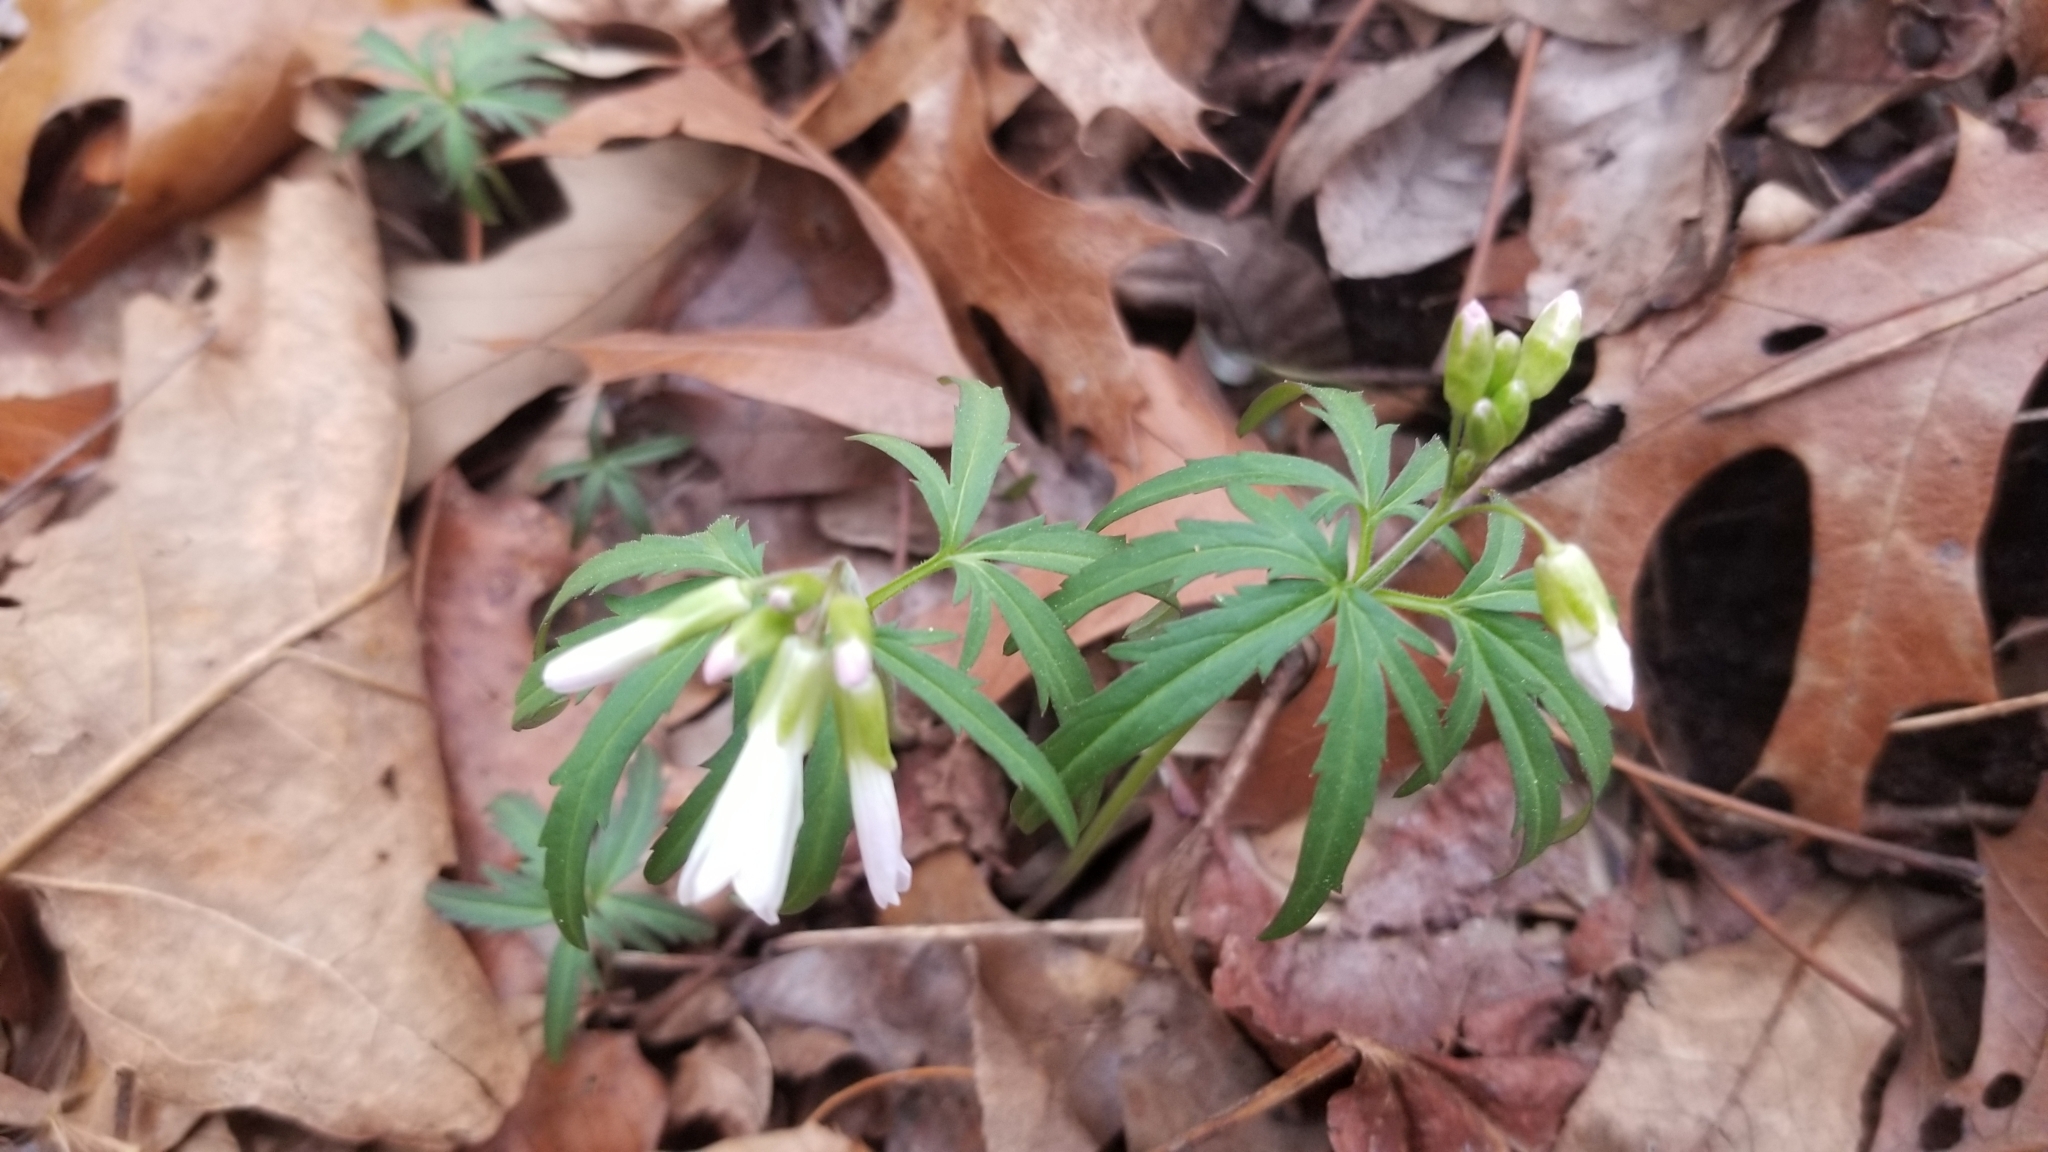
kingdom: Plantae
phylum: Tracheophyta
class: Magnoliopsida
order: Brassicales
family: Brassicaceae
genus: Cardamine
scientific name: Cardamine concatenata
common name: Cut-leaf toothcup
